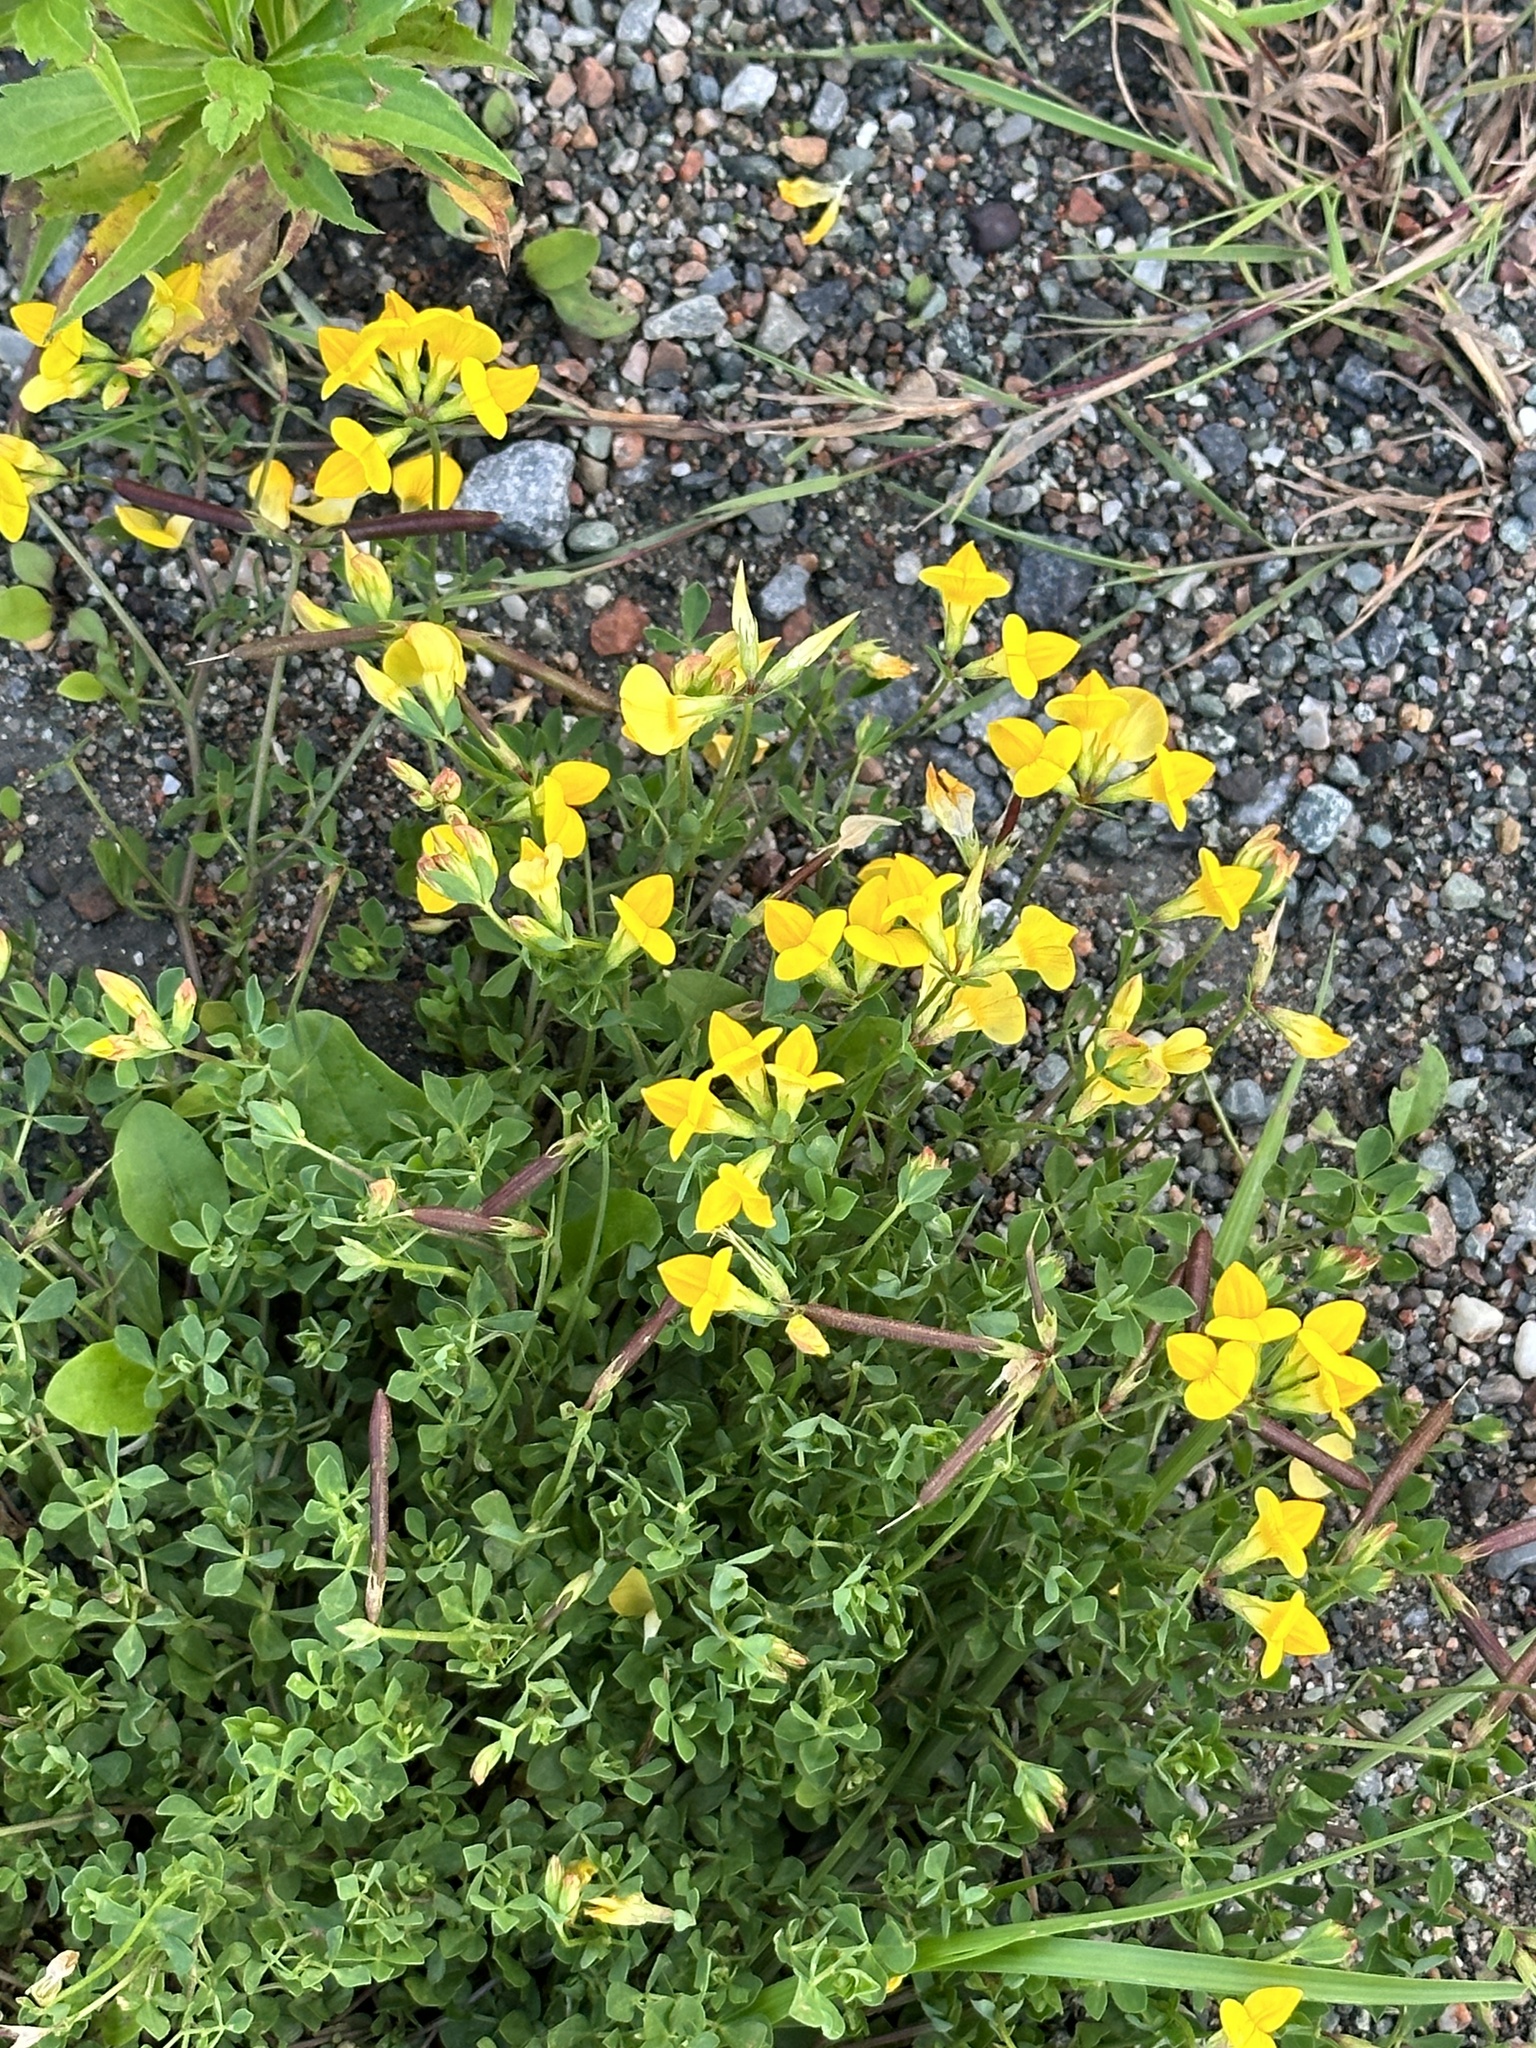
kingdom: Plantae
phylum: Tracheophyta
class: Magnoliopsida
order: Fabales
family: Fabaceae
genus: Lotus
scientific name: Lotus corniculatus
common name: Common bird's-foot-trefoil
